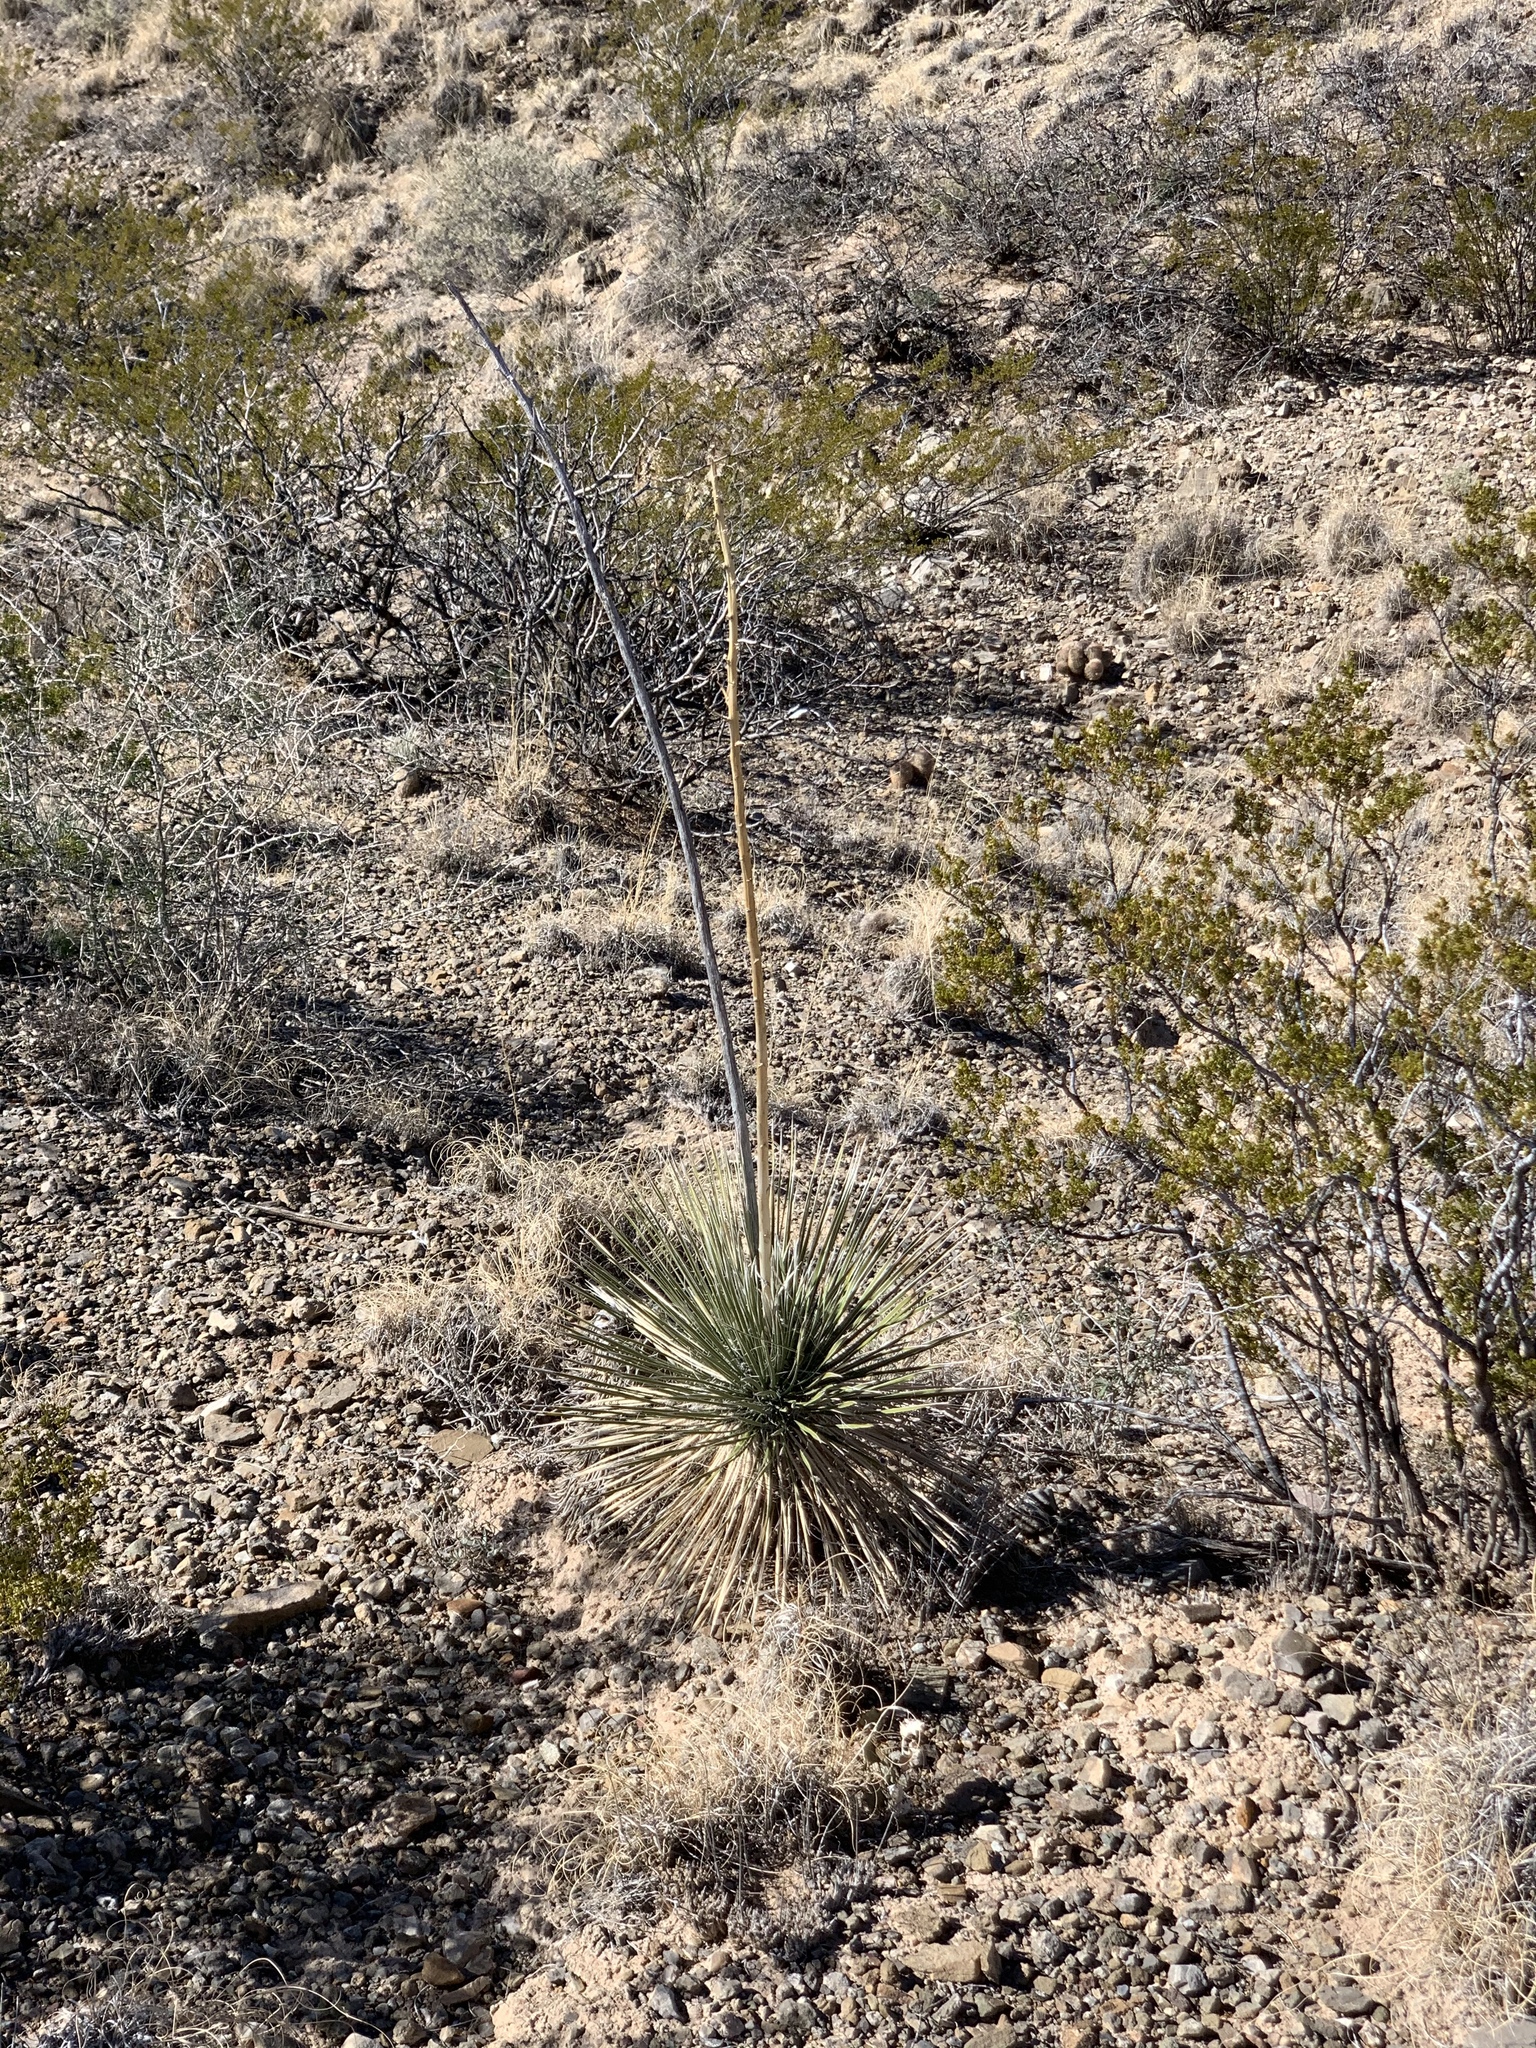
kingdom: Plantae
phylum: Tracheophyta
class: Liliopsida
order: Asparagales
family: Asparagaceae
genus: Yucca
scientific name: Yucca elata
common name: Palmella
